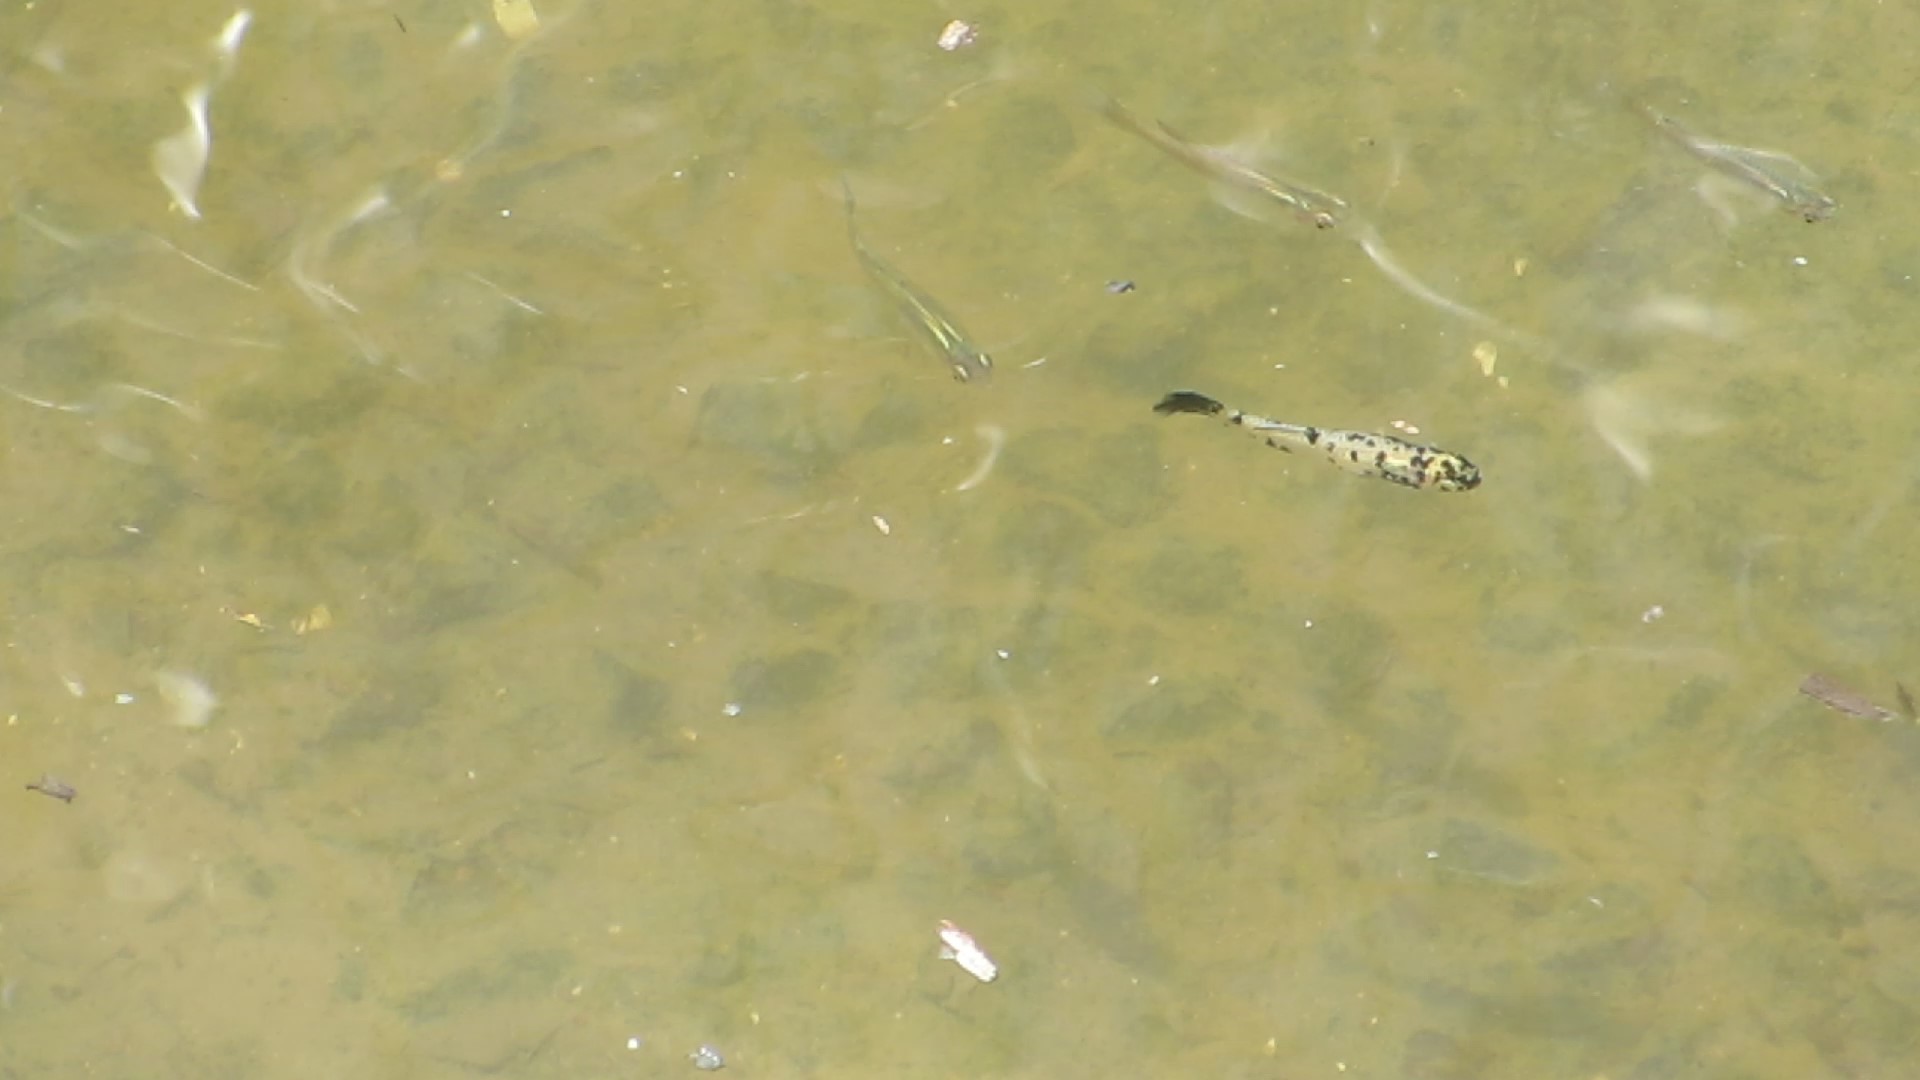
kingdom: Animalia
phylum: Chordata
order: Cyprinodontiformes
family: Poeciliidae
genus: Gambusia
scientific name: Gambusia holbrooki
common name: Eastern mosquitofish
